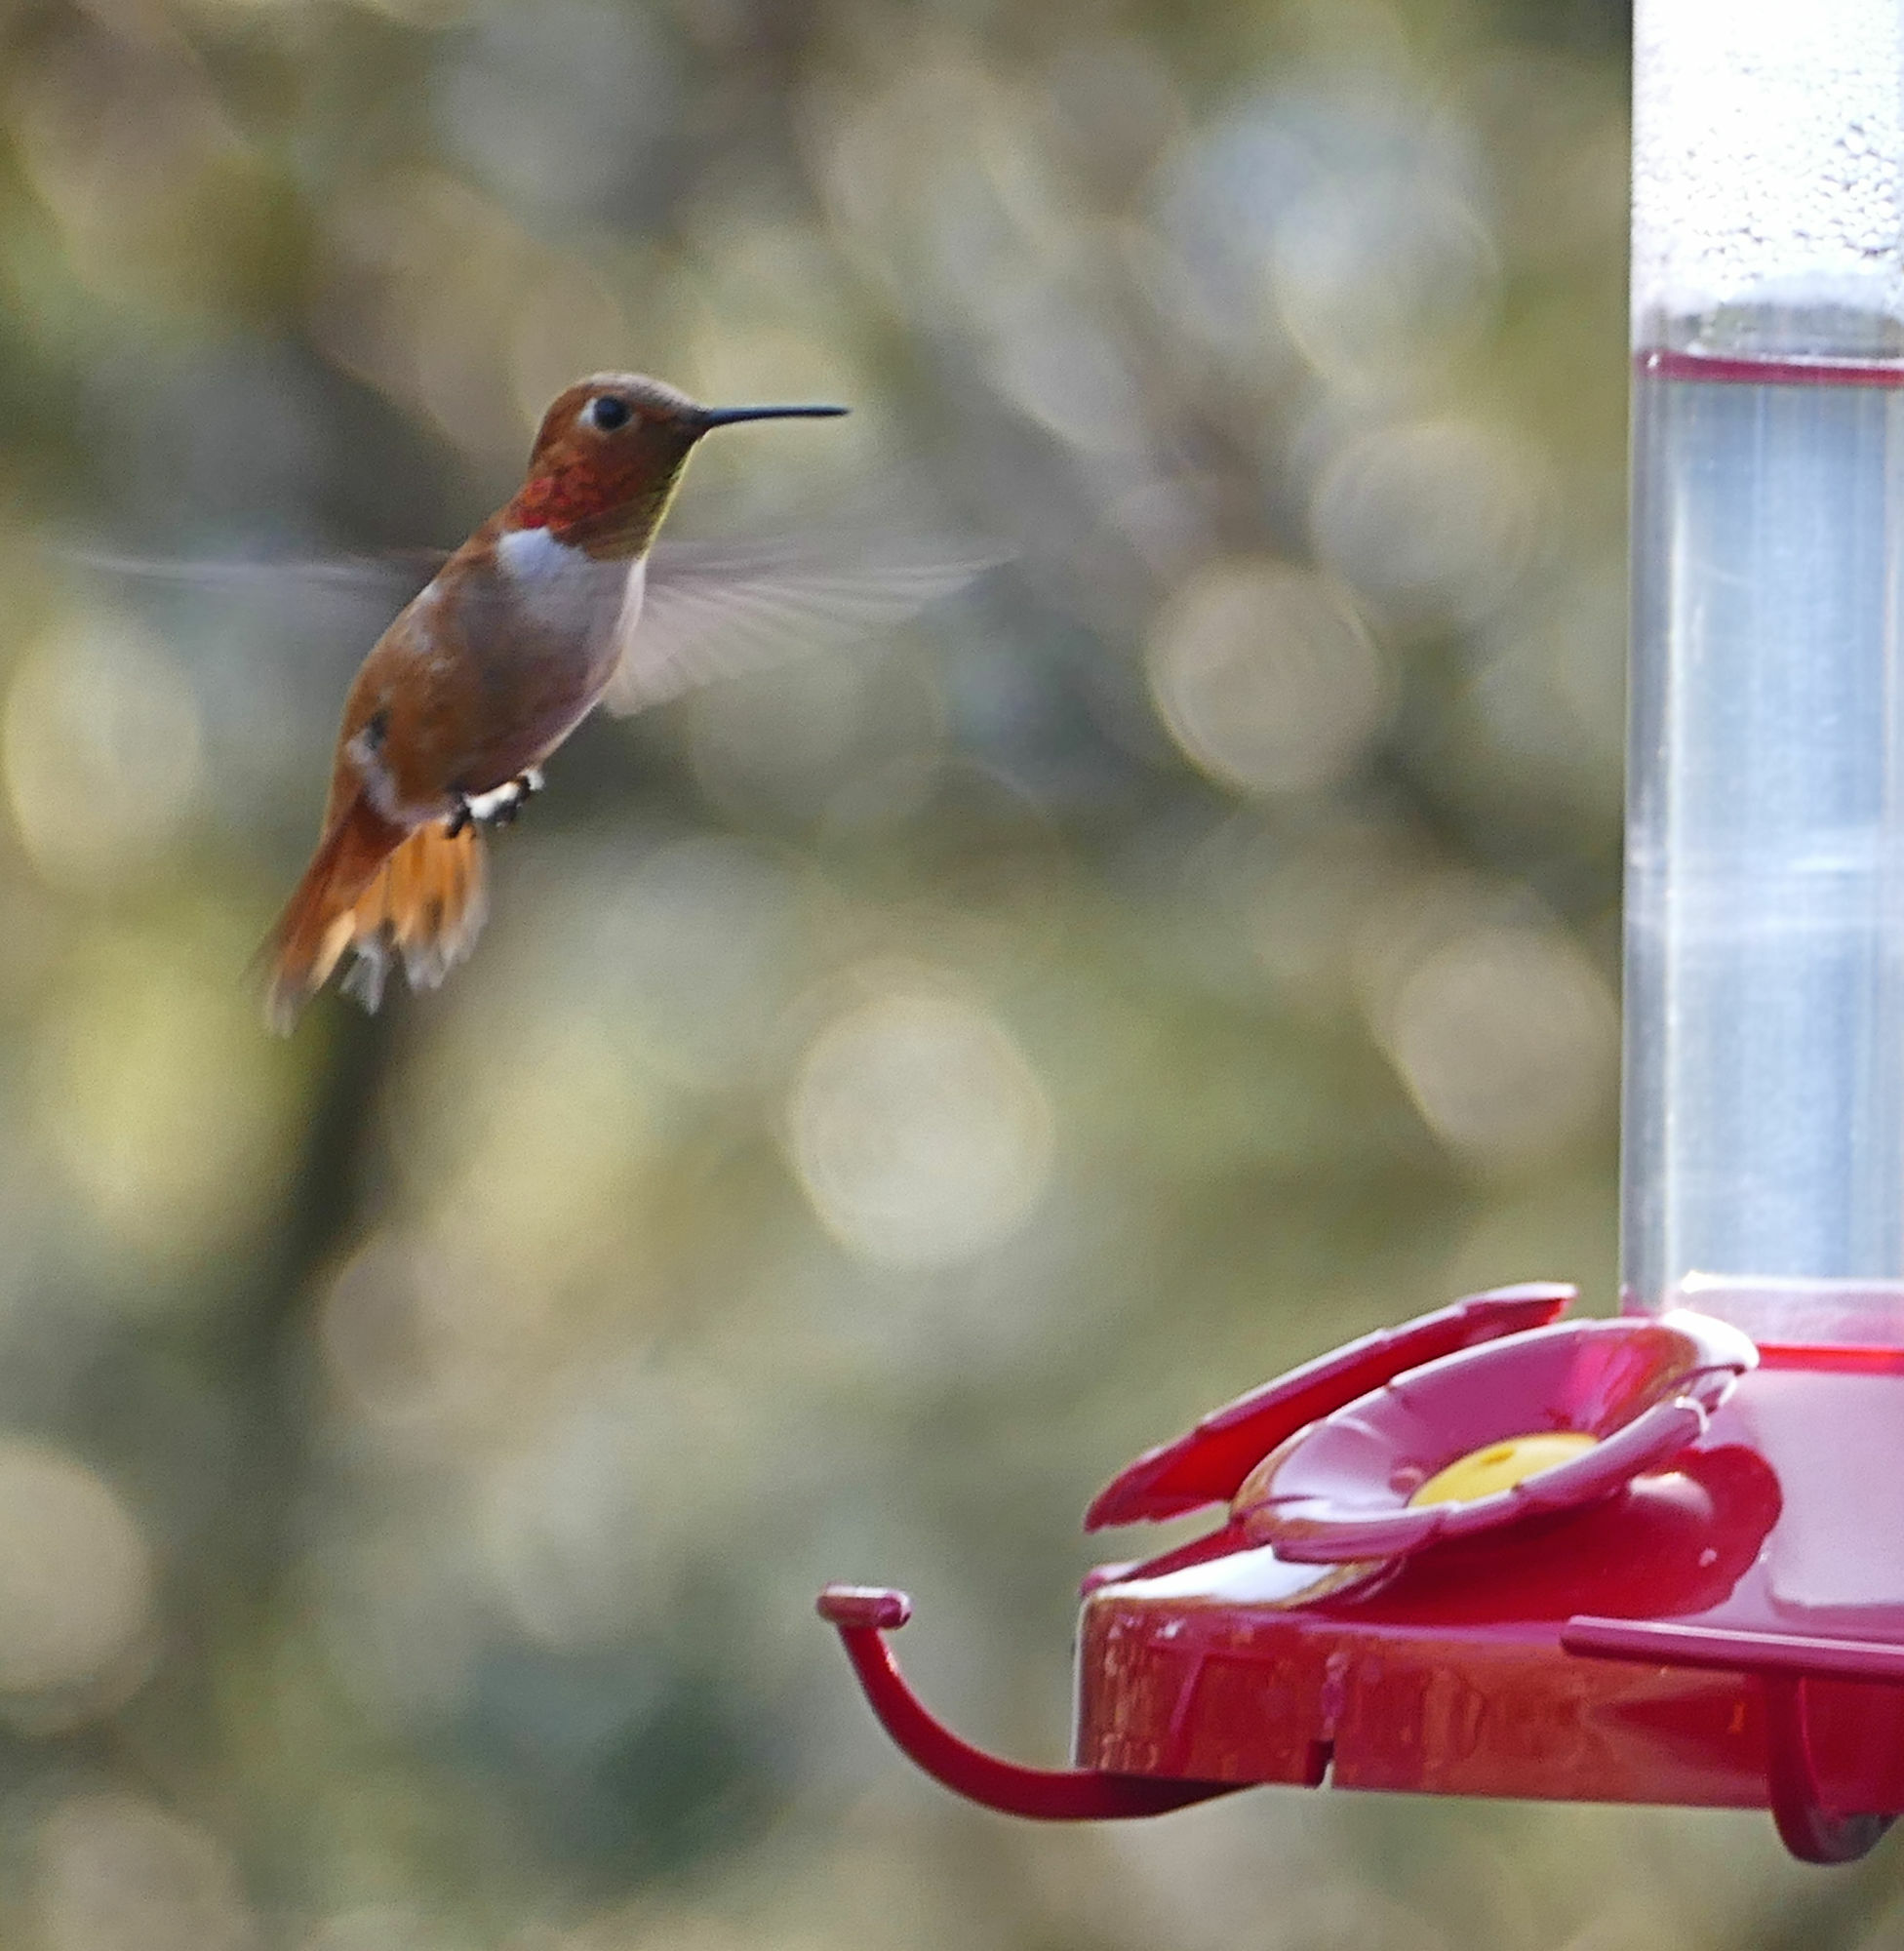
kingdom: Animalia
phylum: Chordata
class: Aves
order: Apodiformes
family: Trochilidae
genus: Selasphorus
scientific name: Selasphorus rufus
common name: Rufous hummingbird
